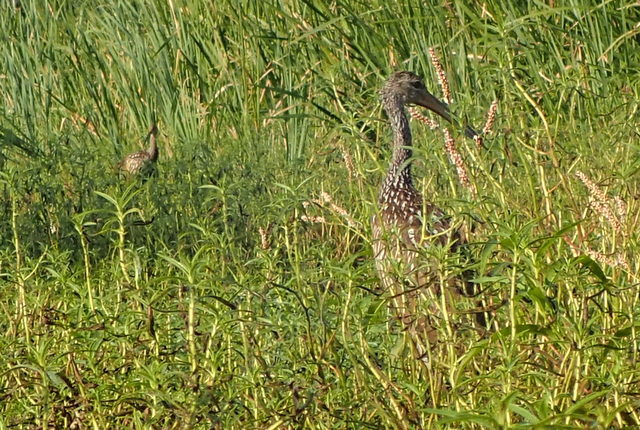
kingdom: Animalia
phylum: Chordata
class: Aves
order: Gruiformes
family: Aramidae
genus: Aramus
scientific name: Aramus guarauna
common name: Limpkin
